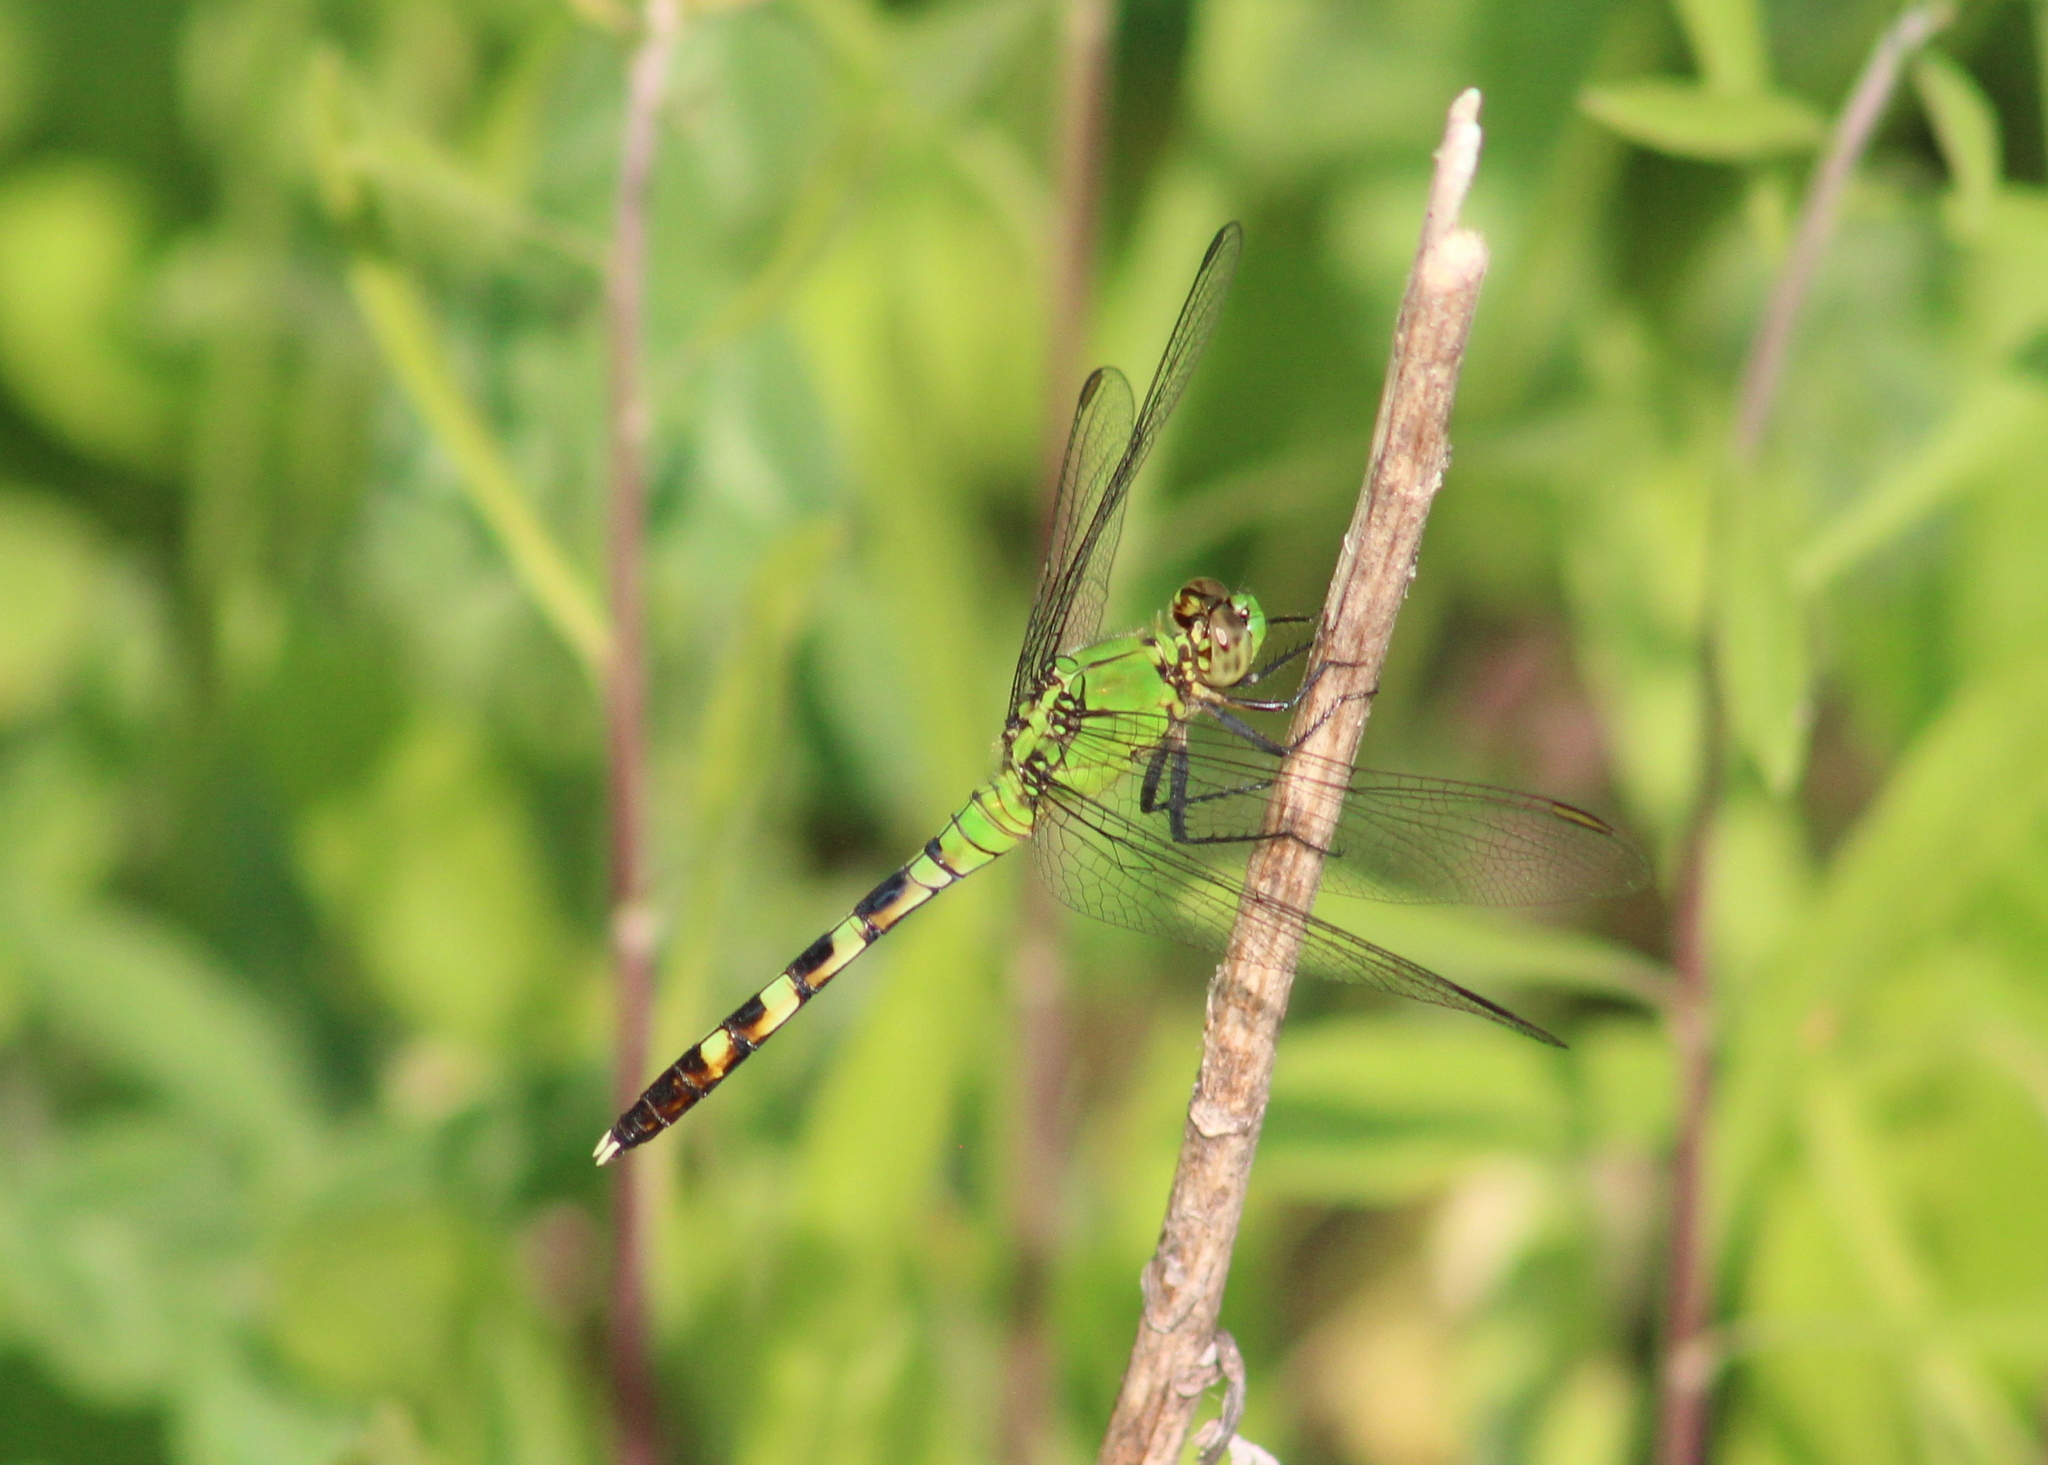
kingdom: Animalia
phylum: Arthropoda
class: Insecta
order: Odonata
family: Libellulidae
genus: Erythemis
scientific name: Erythemis simplicicollis
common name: Eastern pondhawk
